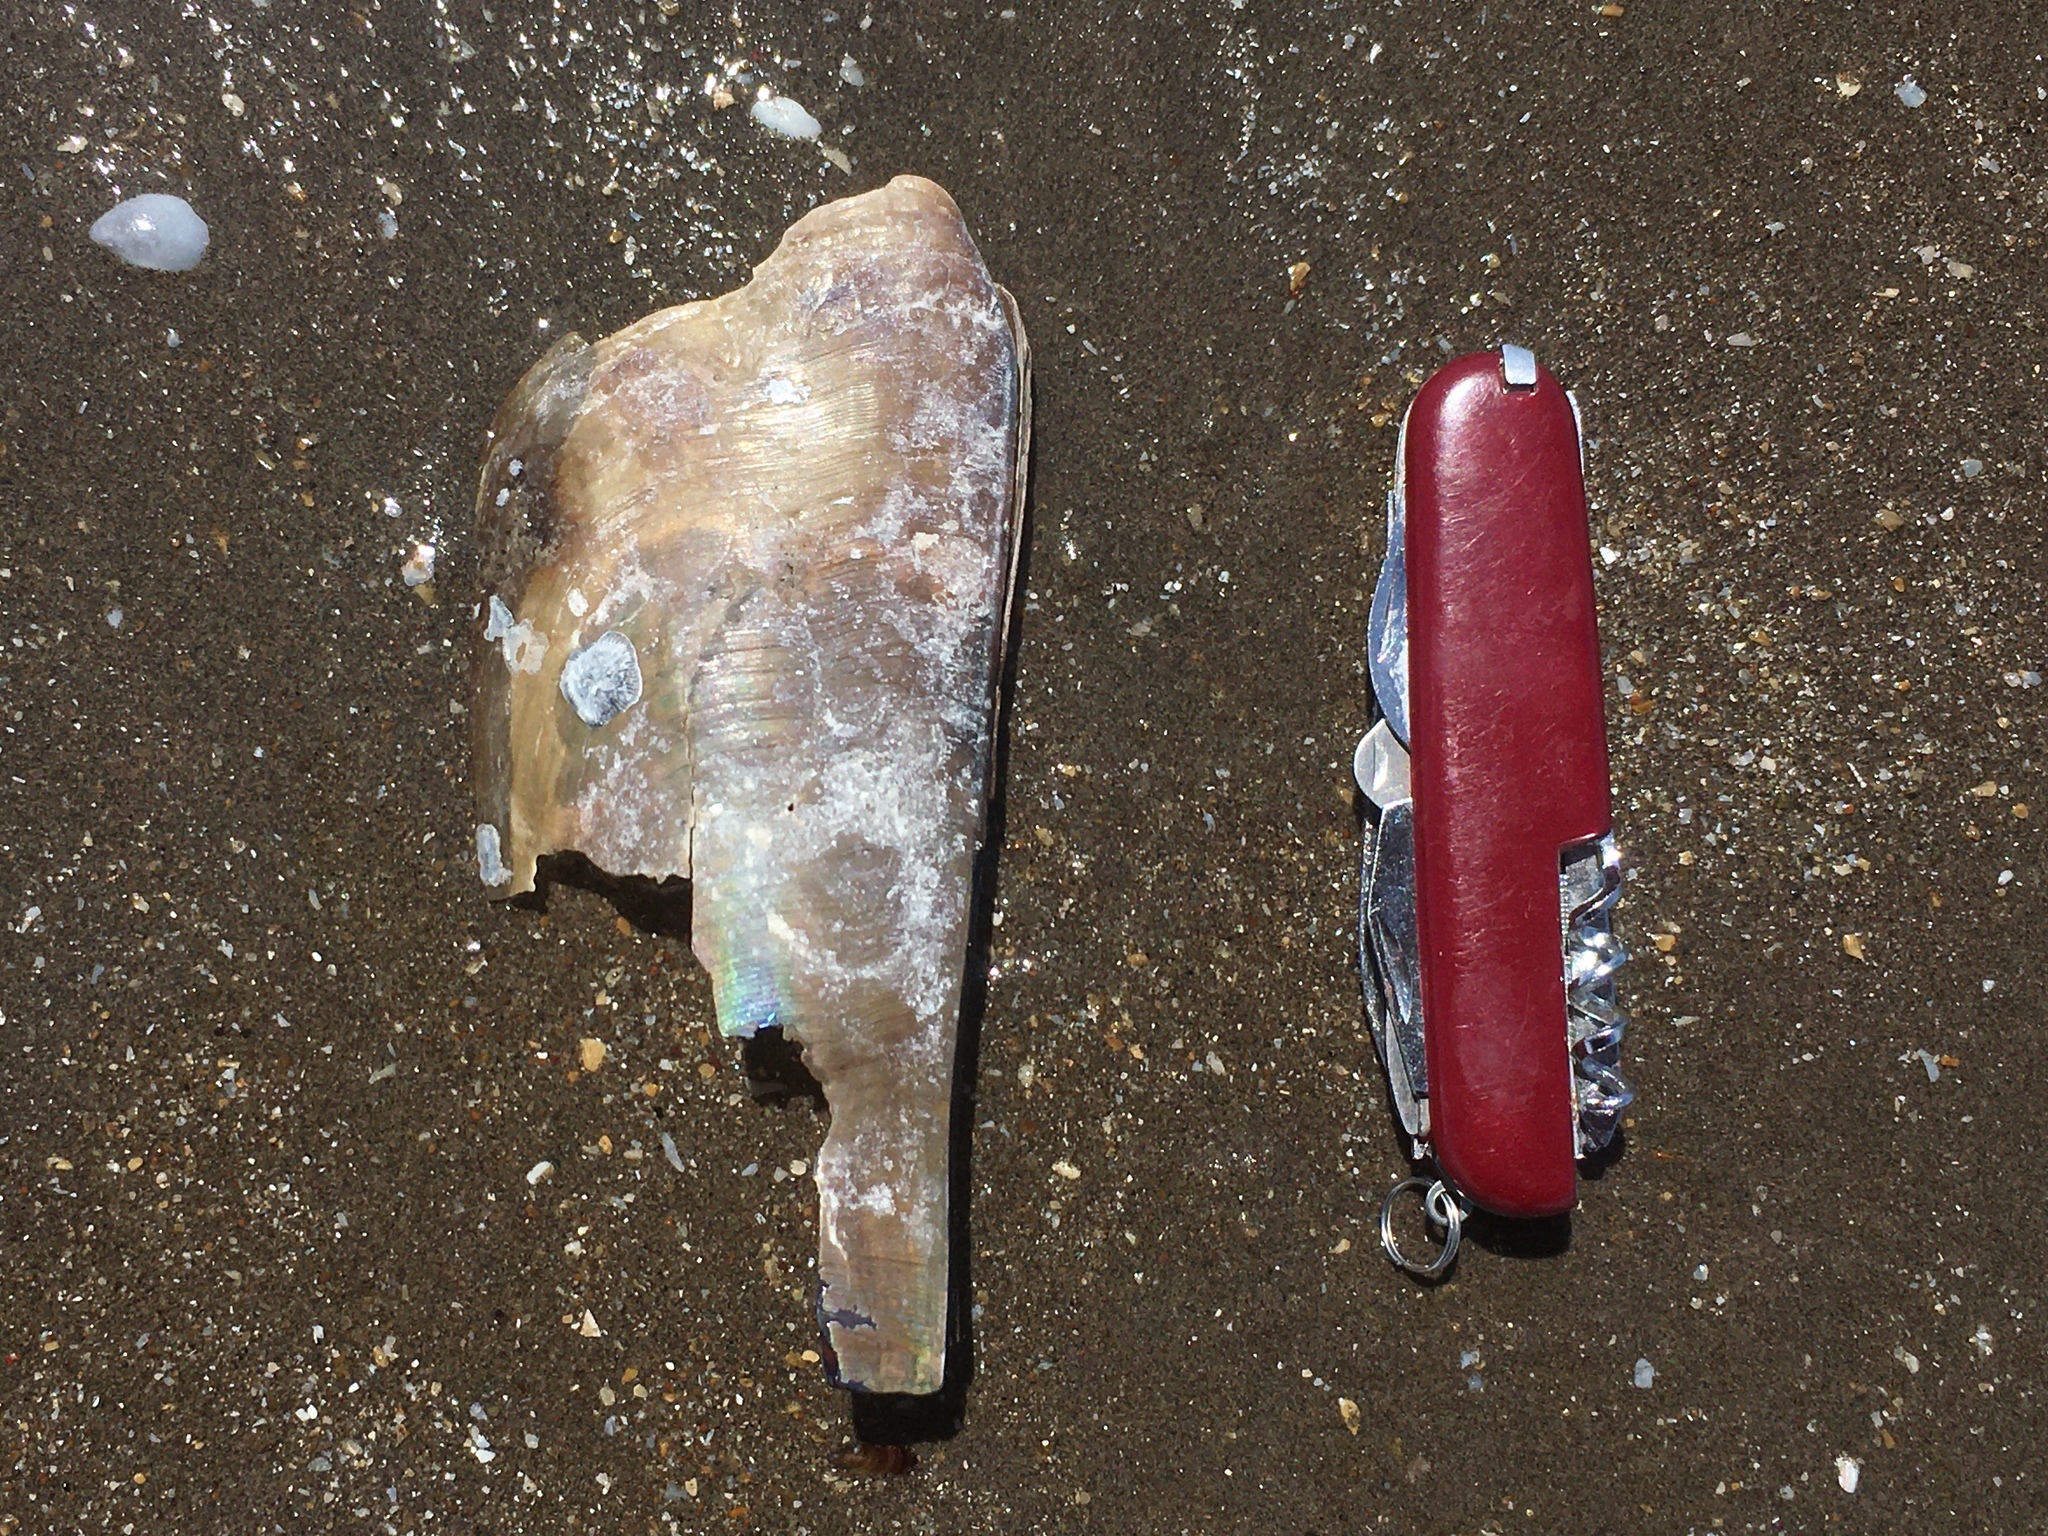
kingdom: Animalia
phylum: Mollusca
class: Bivalvia
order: Ostreida
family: Pinnidae
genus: Atrina
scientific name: Atrina seminuda
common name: Half-naked penshell
